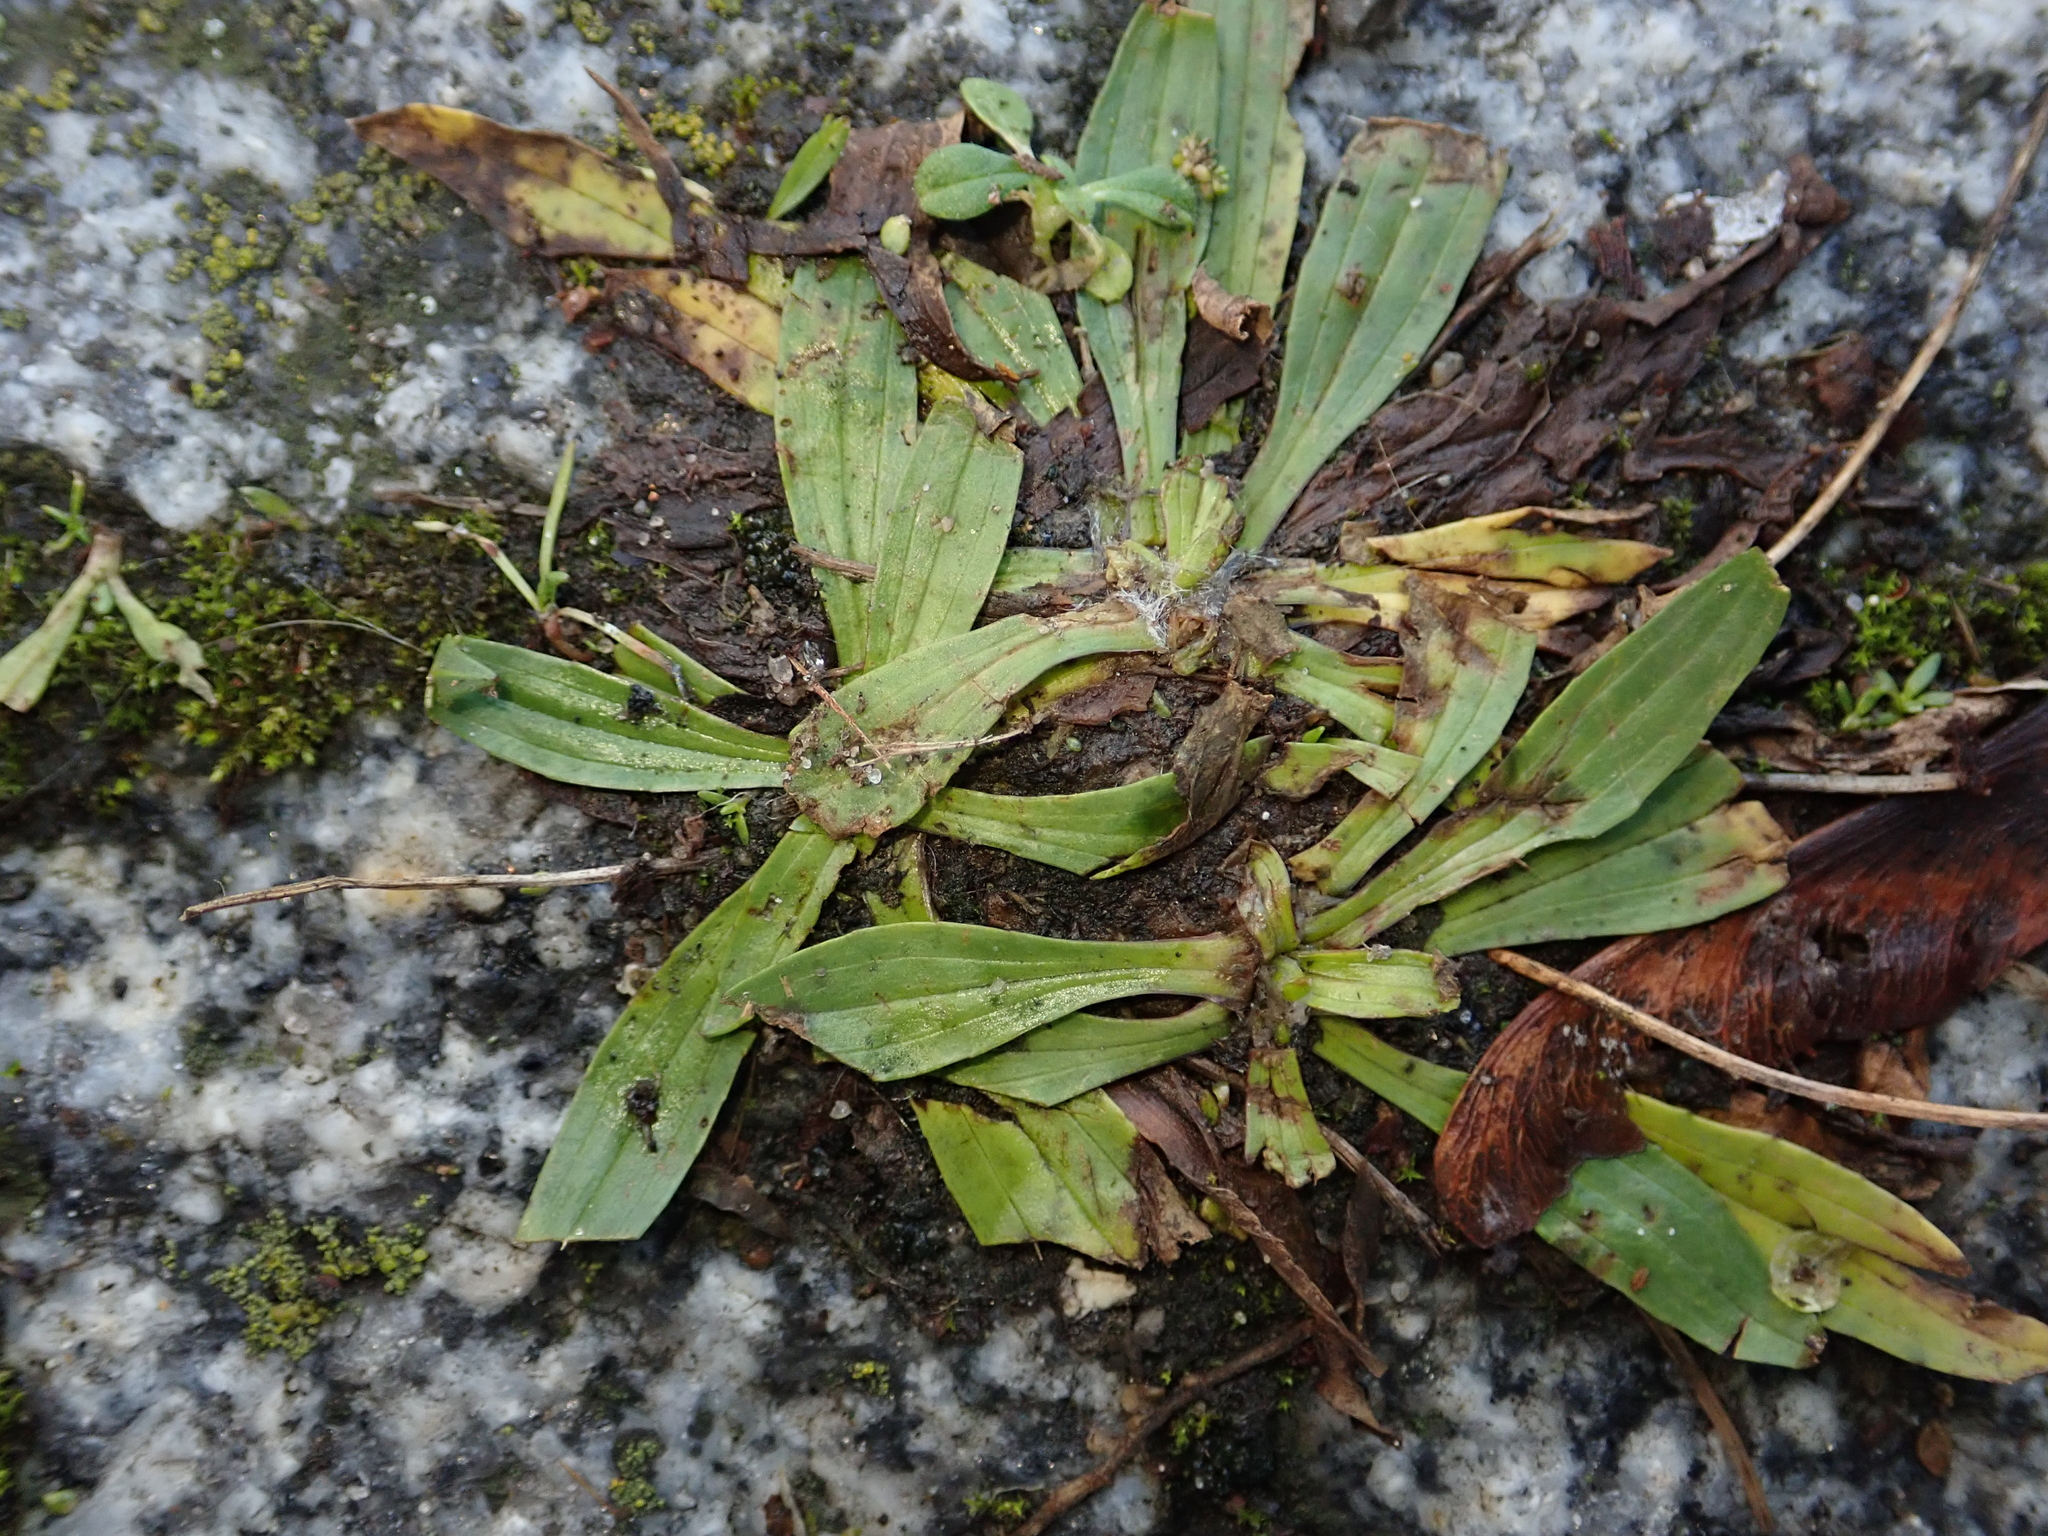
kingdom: Plantae
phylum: Tracheophyta
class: Magnoliopsida
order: Lamiales
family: Plantaginaceae
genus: Plantago
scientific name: Plantago lanceolata
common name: Ribwort plantain
